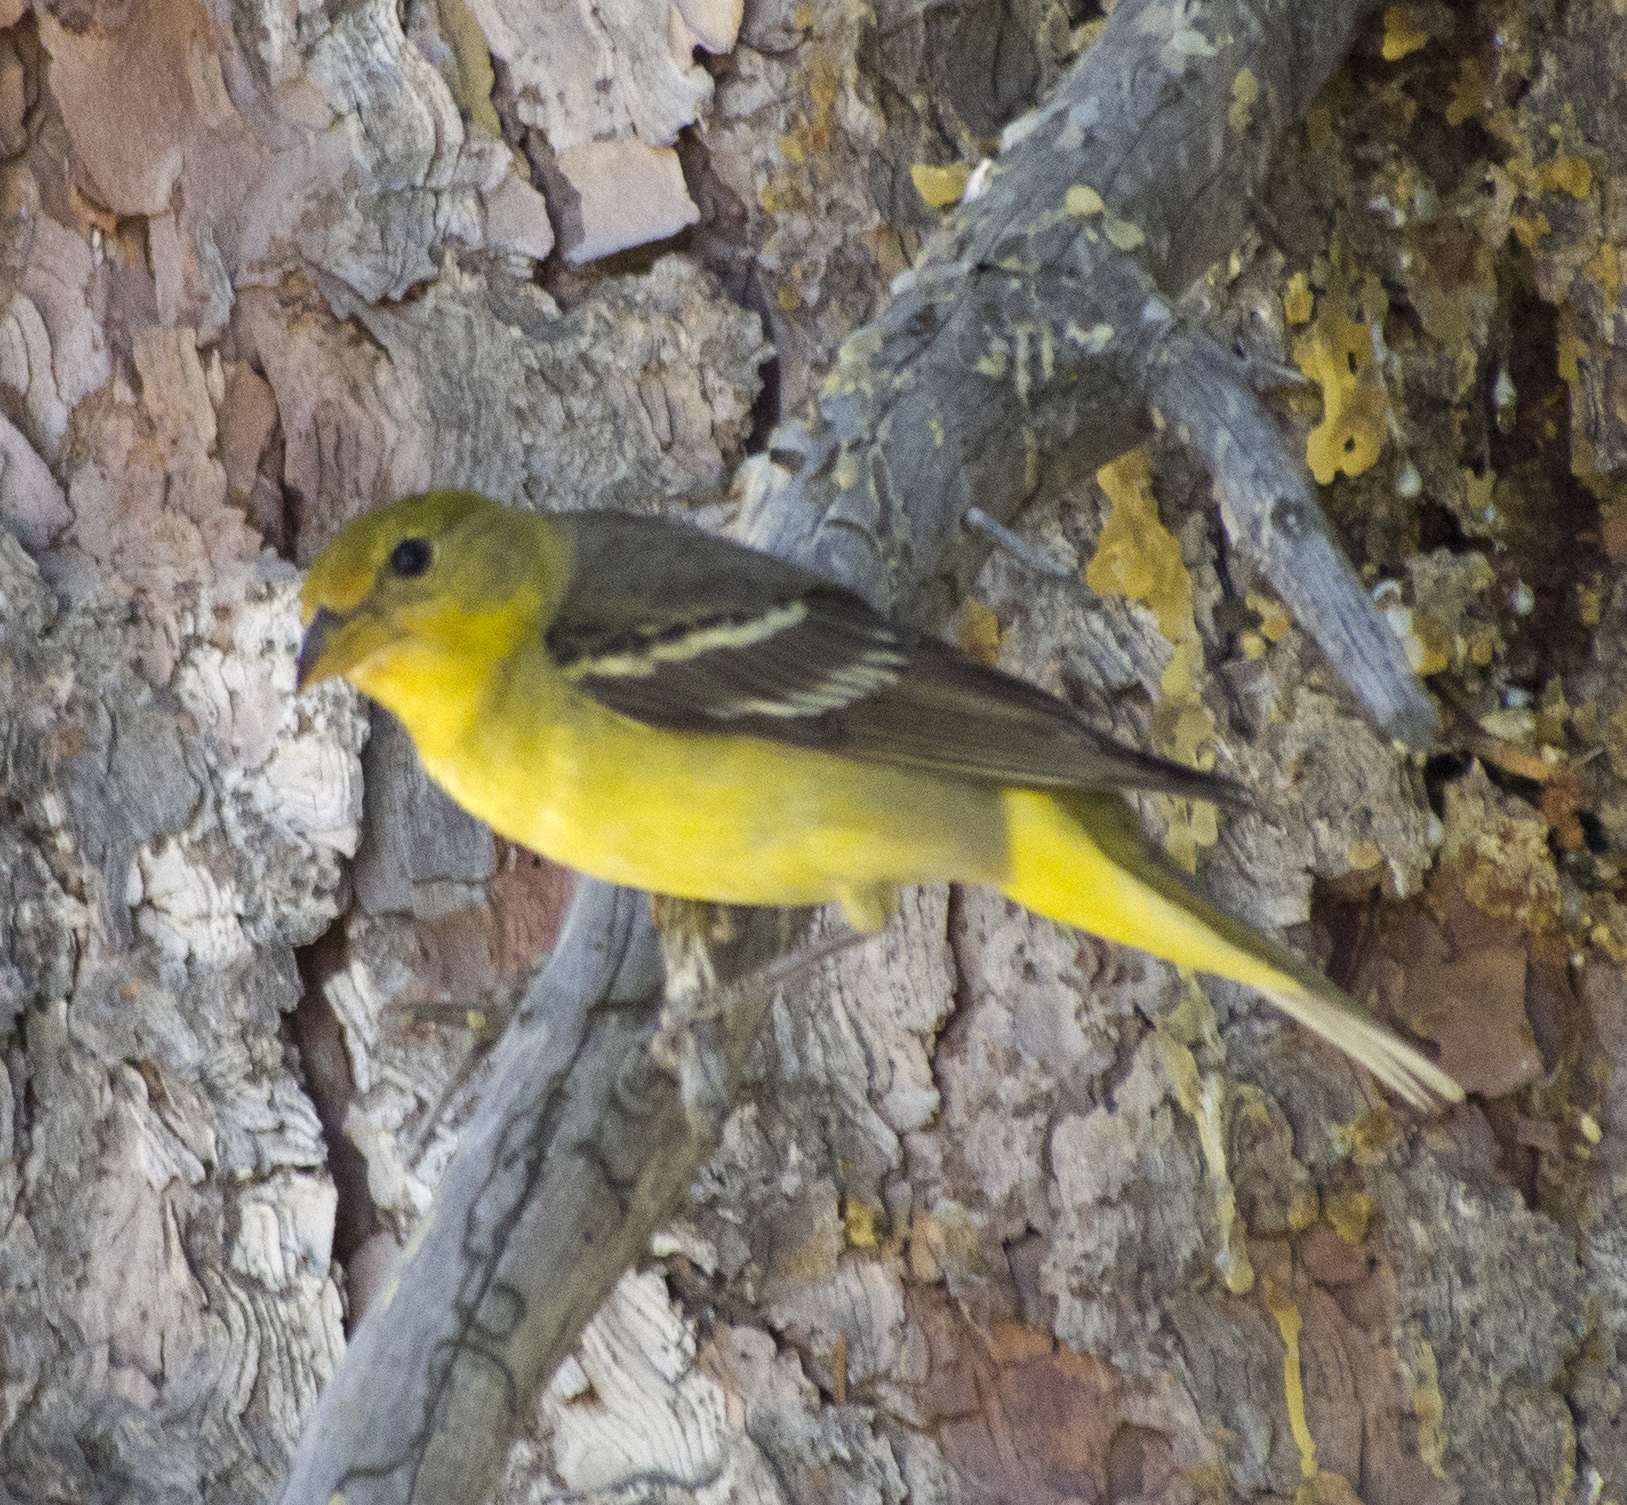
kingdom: Animalia
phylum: Chordata
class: Aves
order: Passeriformes
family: Cardinalidae
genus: Piranga
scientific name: Piranga ludoviciana
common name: Western tanager
